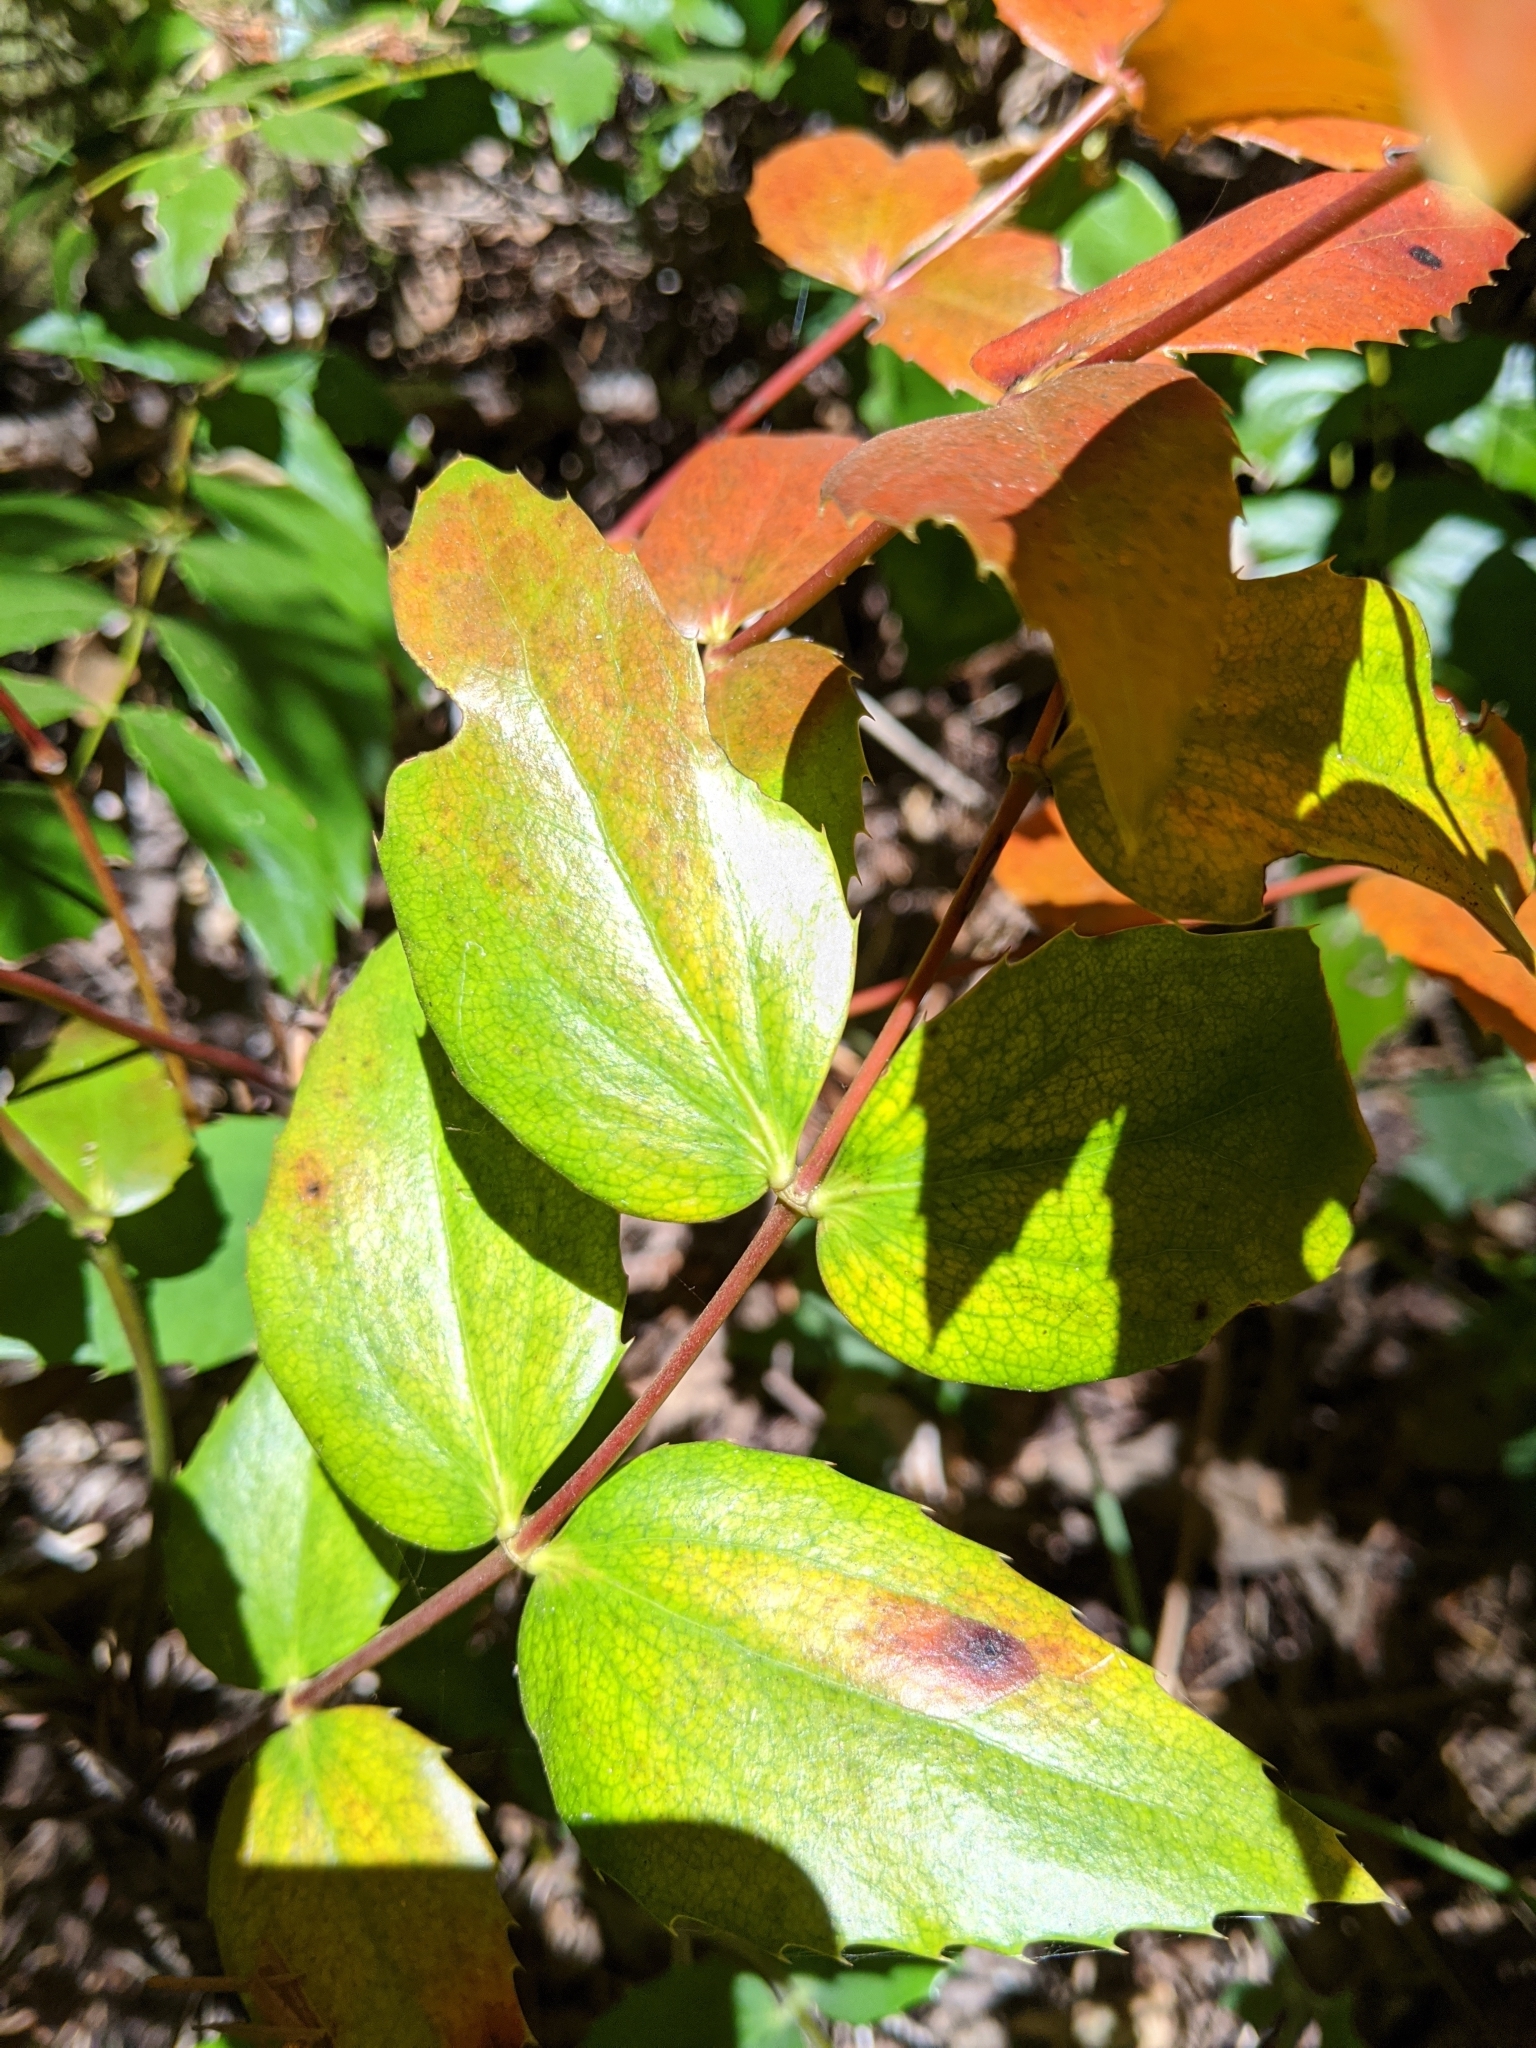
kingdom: Plantae
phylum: Tracheophyta
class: Magnoliopsida
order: Ranunculales
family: Berberidaceae
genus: Mahonia
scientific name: Mahonia nervosa
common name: Cascade oregon-grape
